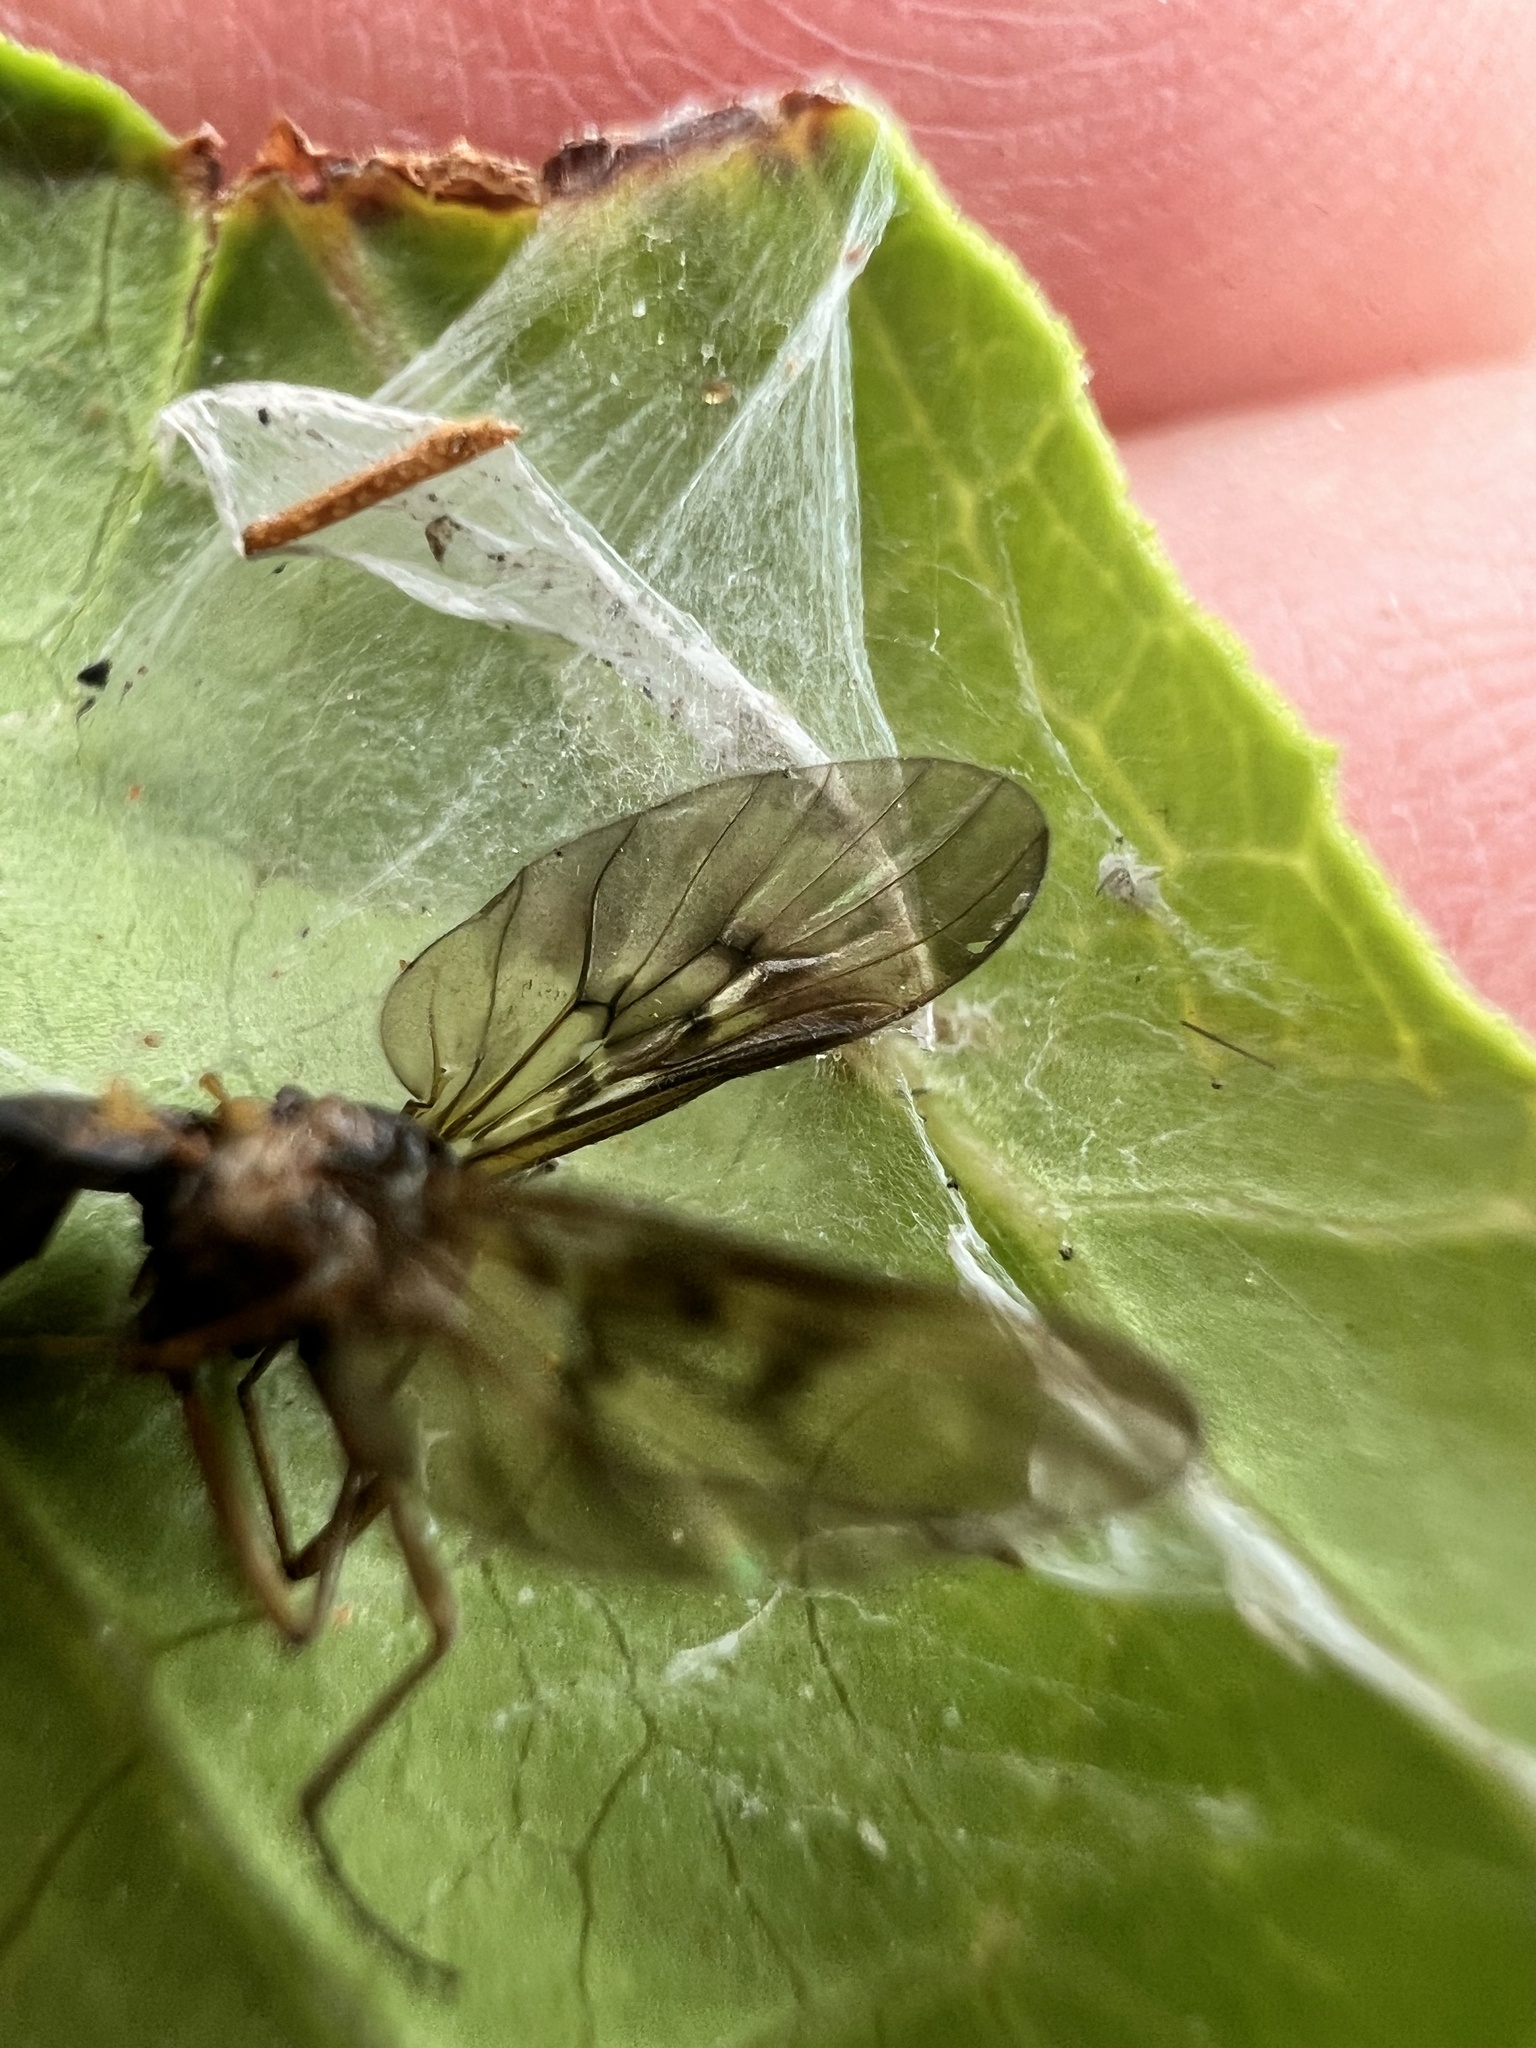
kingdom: Animalia
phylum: Arthropoda
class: Insecta
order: Diptera
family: Anisopodidae
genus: Sylvicola
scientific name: Sylvicola neozelandicus
